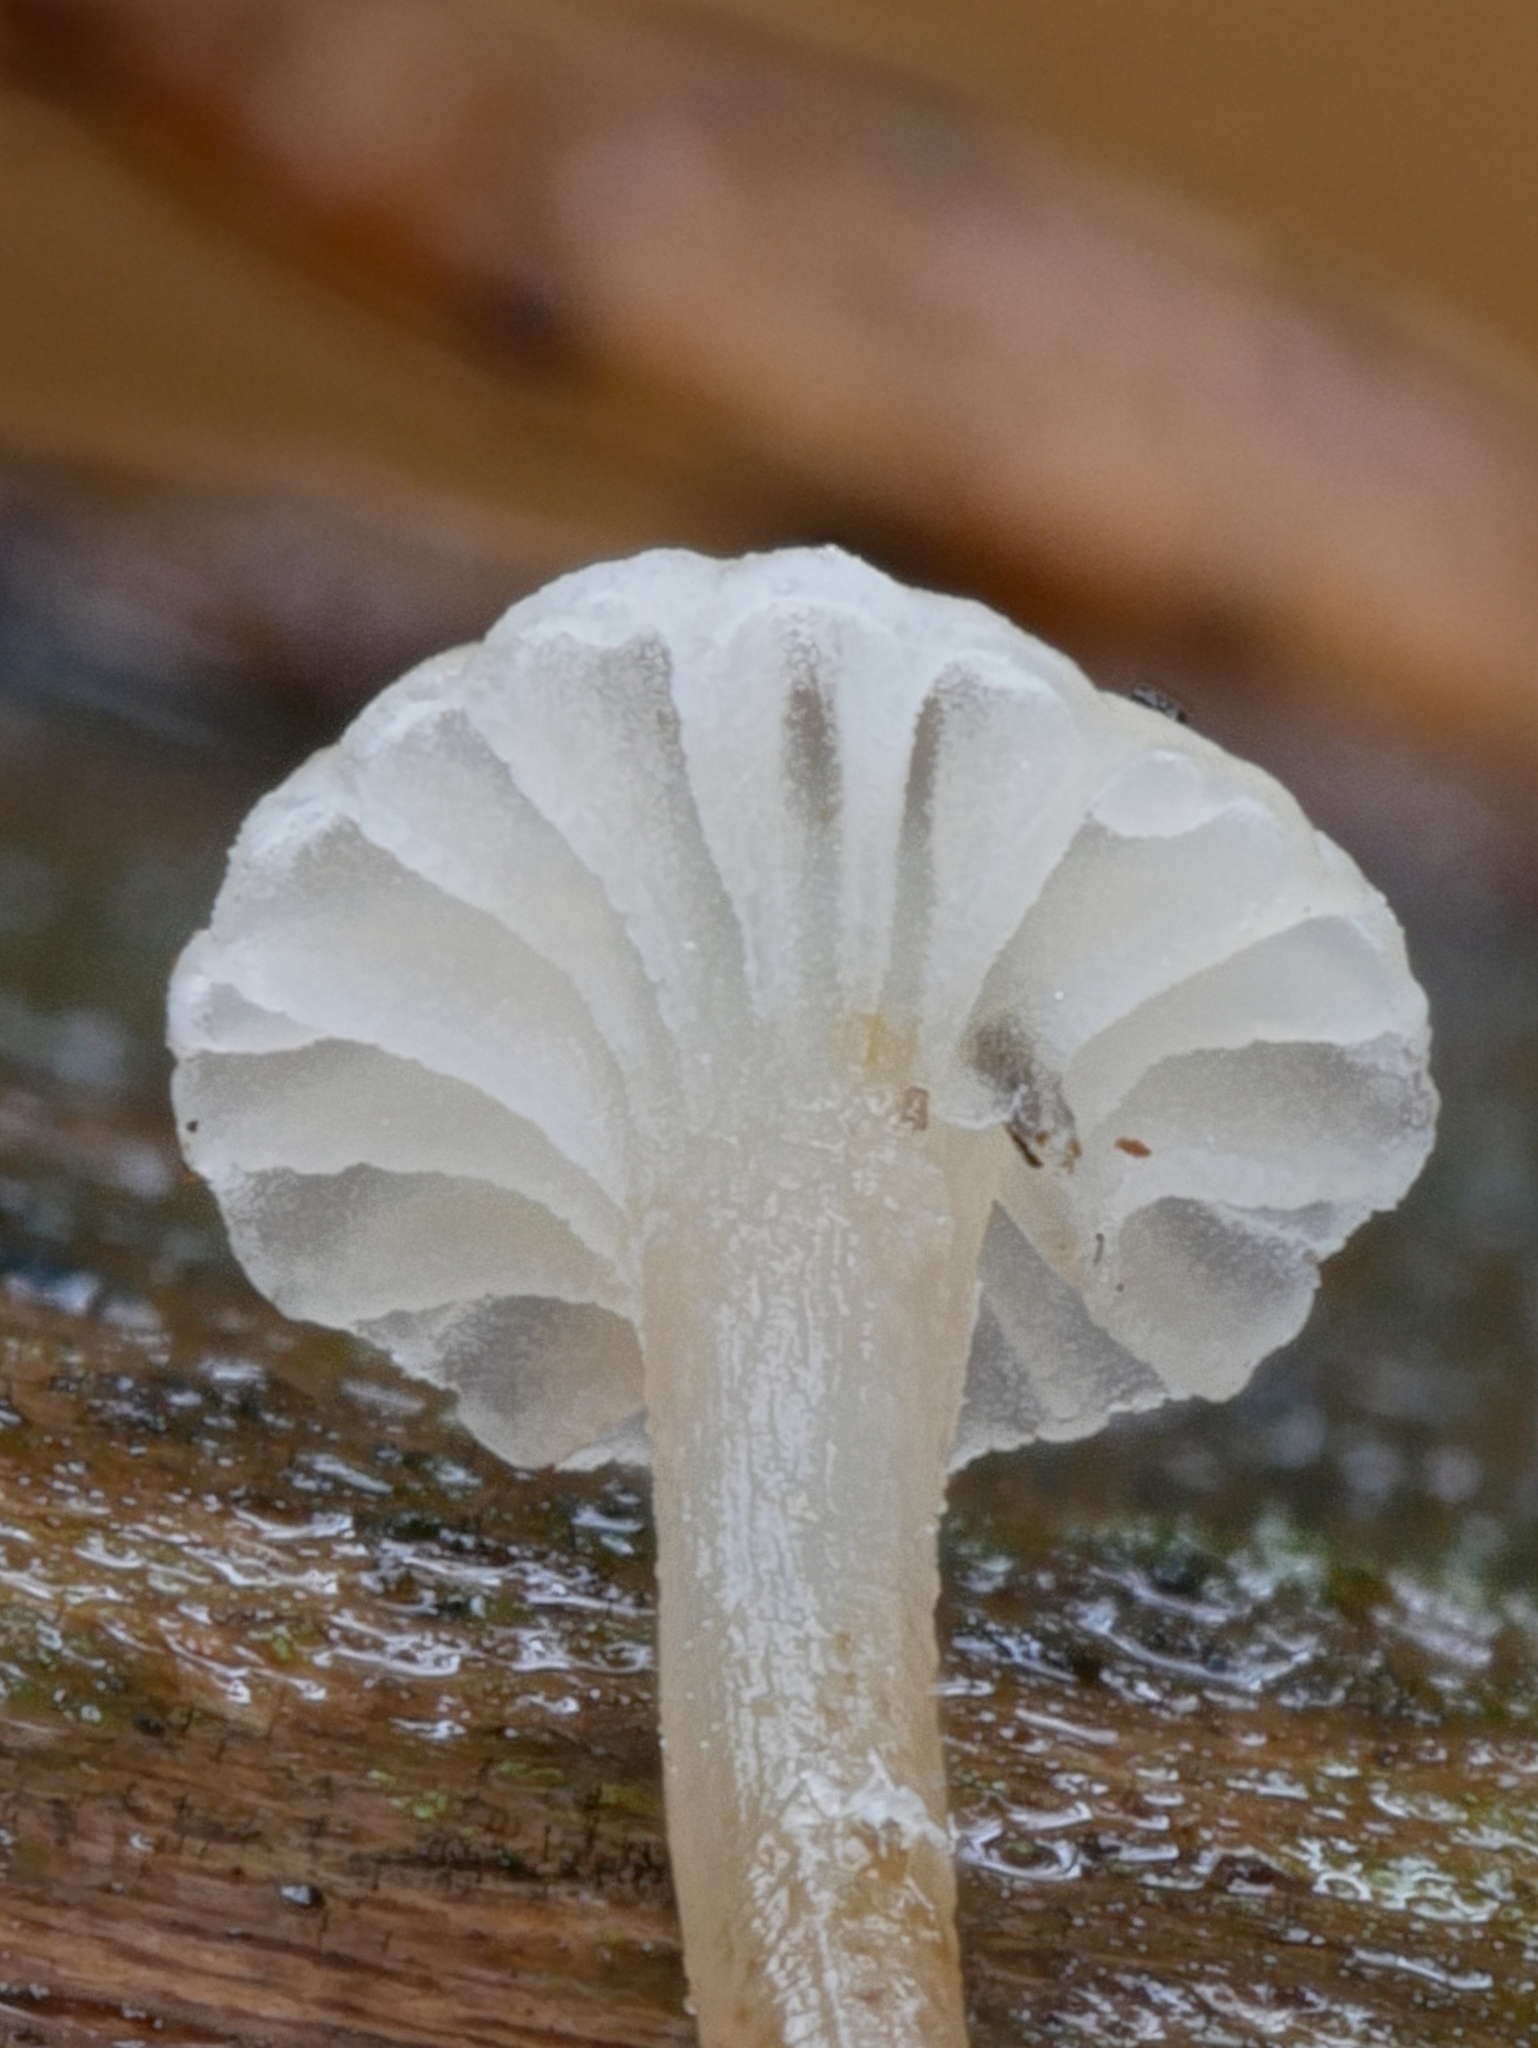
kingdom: Fungi
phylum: Basidiomycota
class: Agaricomycetes
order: Agaricales
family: Mycenaceae
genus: Mycena
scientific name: Mycena vulgaris
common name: Vulgar bonnet
